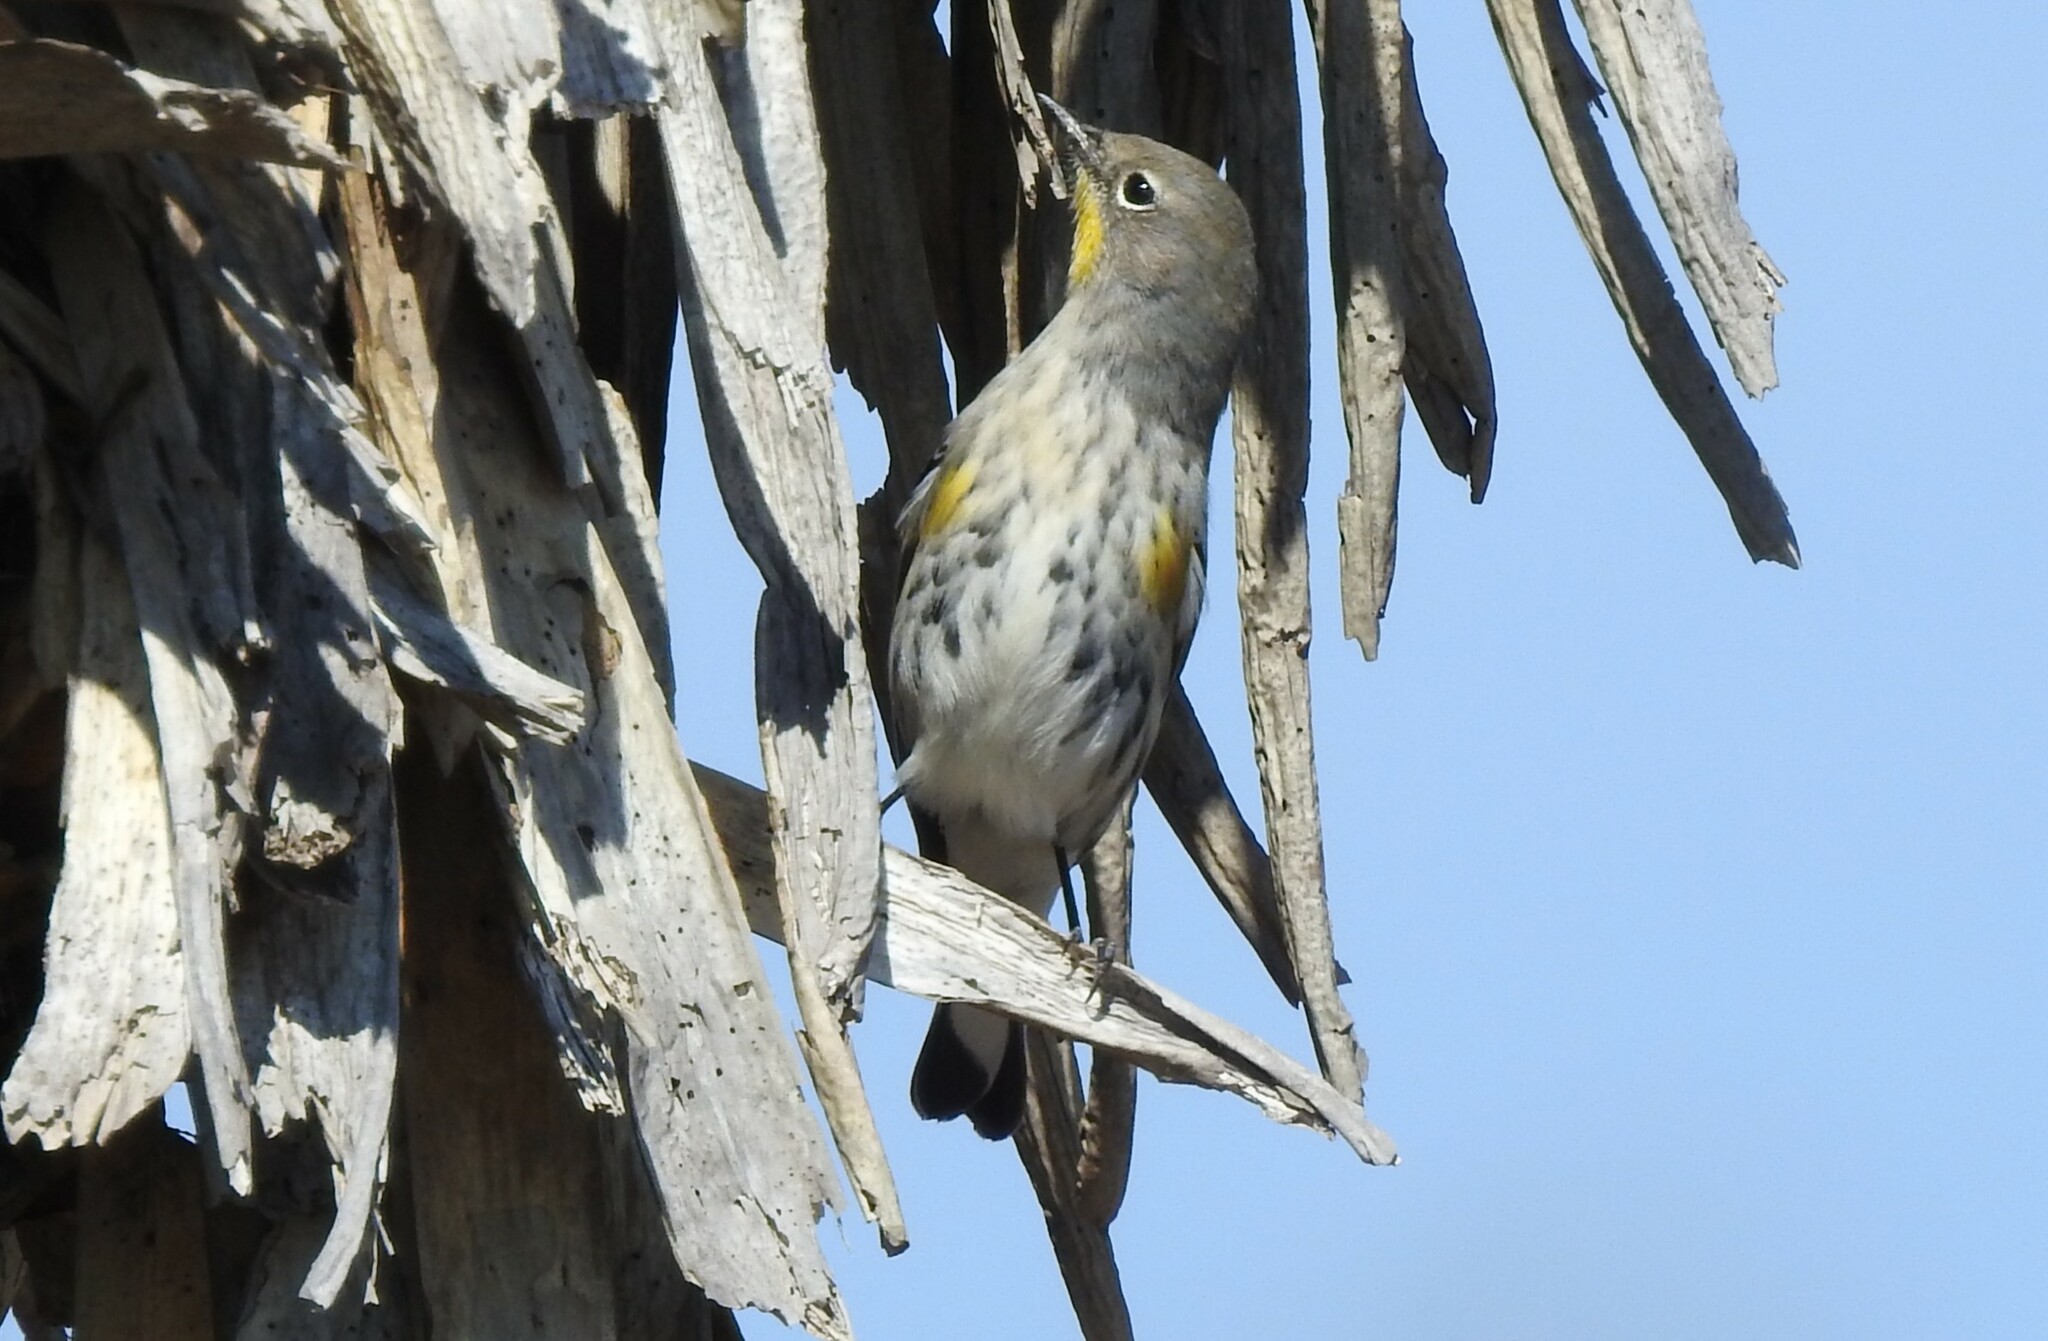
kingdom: Animalia
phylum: Chordata
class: Aves
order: Passeriformes
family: Parulidae
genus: Setophaga
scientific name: Setophaga coronata
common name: Myrtle warbler
